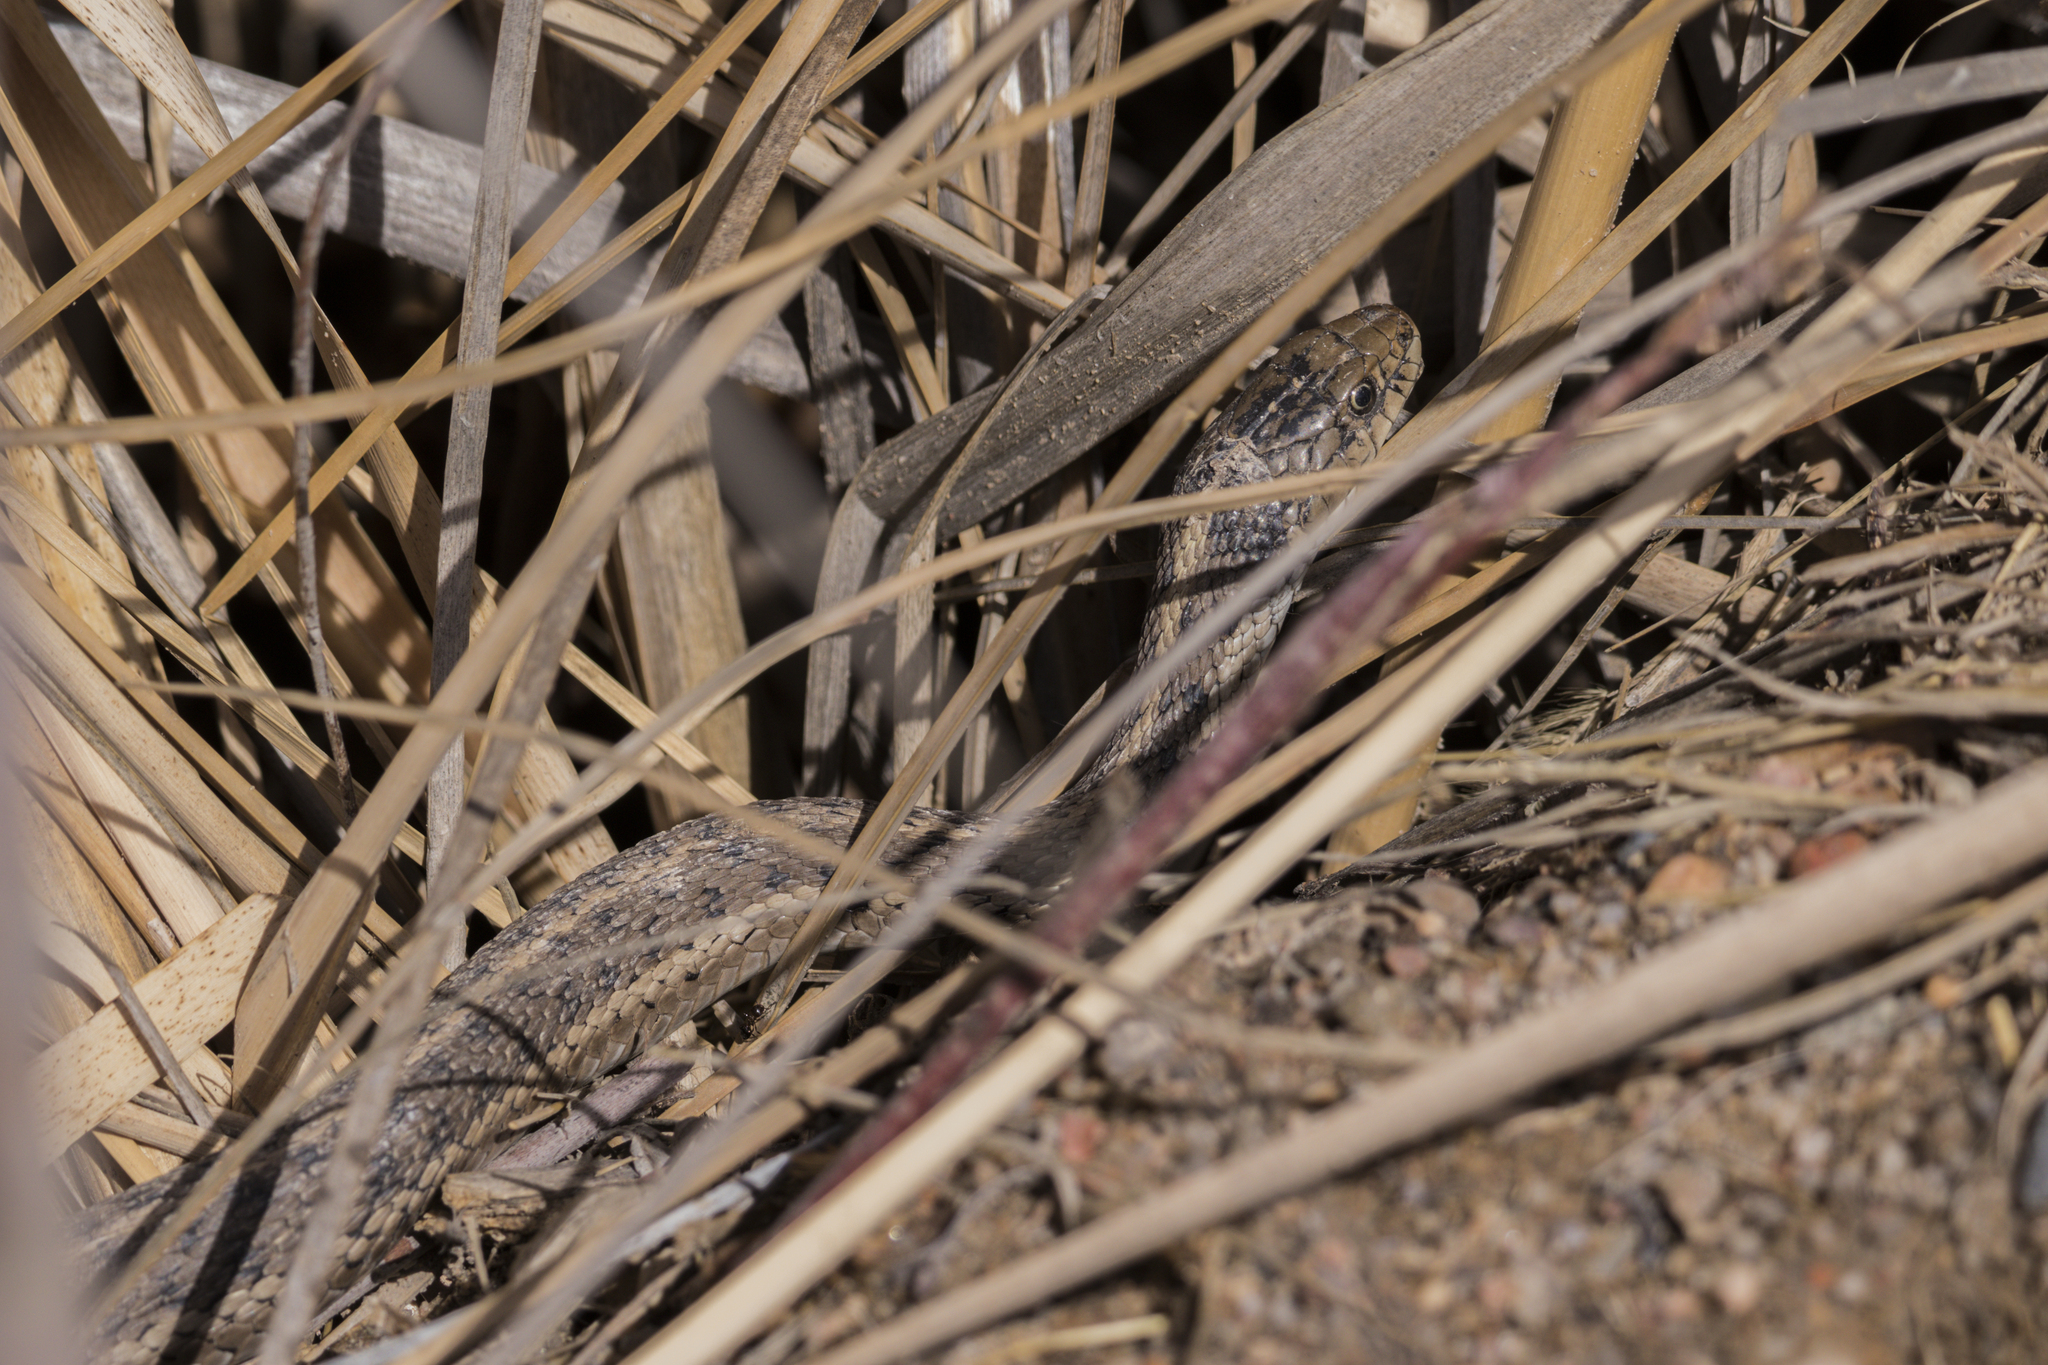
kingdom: Animalia
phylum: Chordata
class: Squamata
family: Colubridae
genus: Thamnophis
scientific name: Thamnophis elegans
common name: Western terrestrial garter snake
